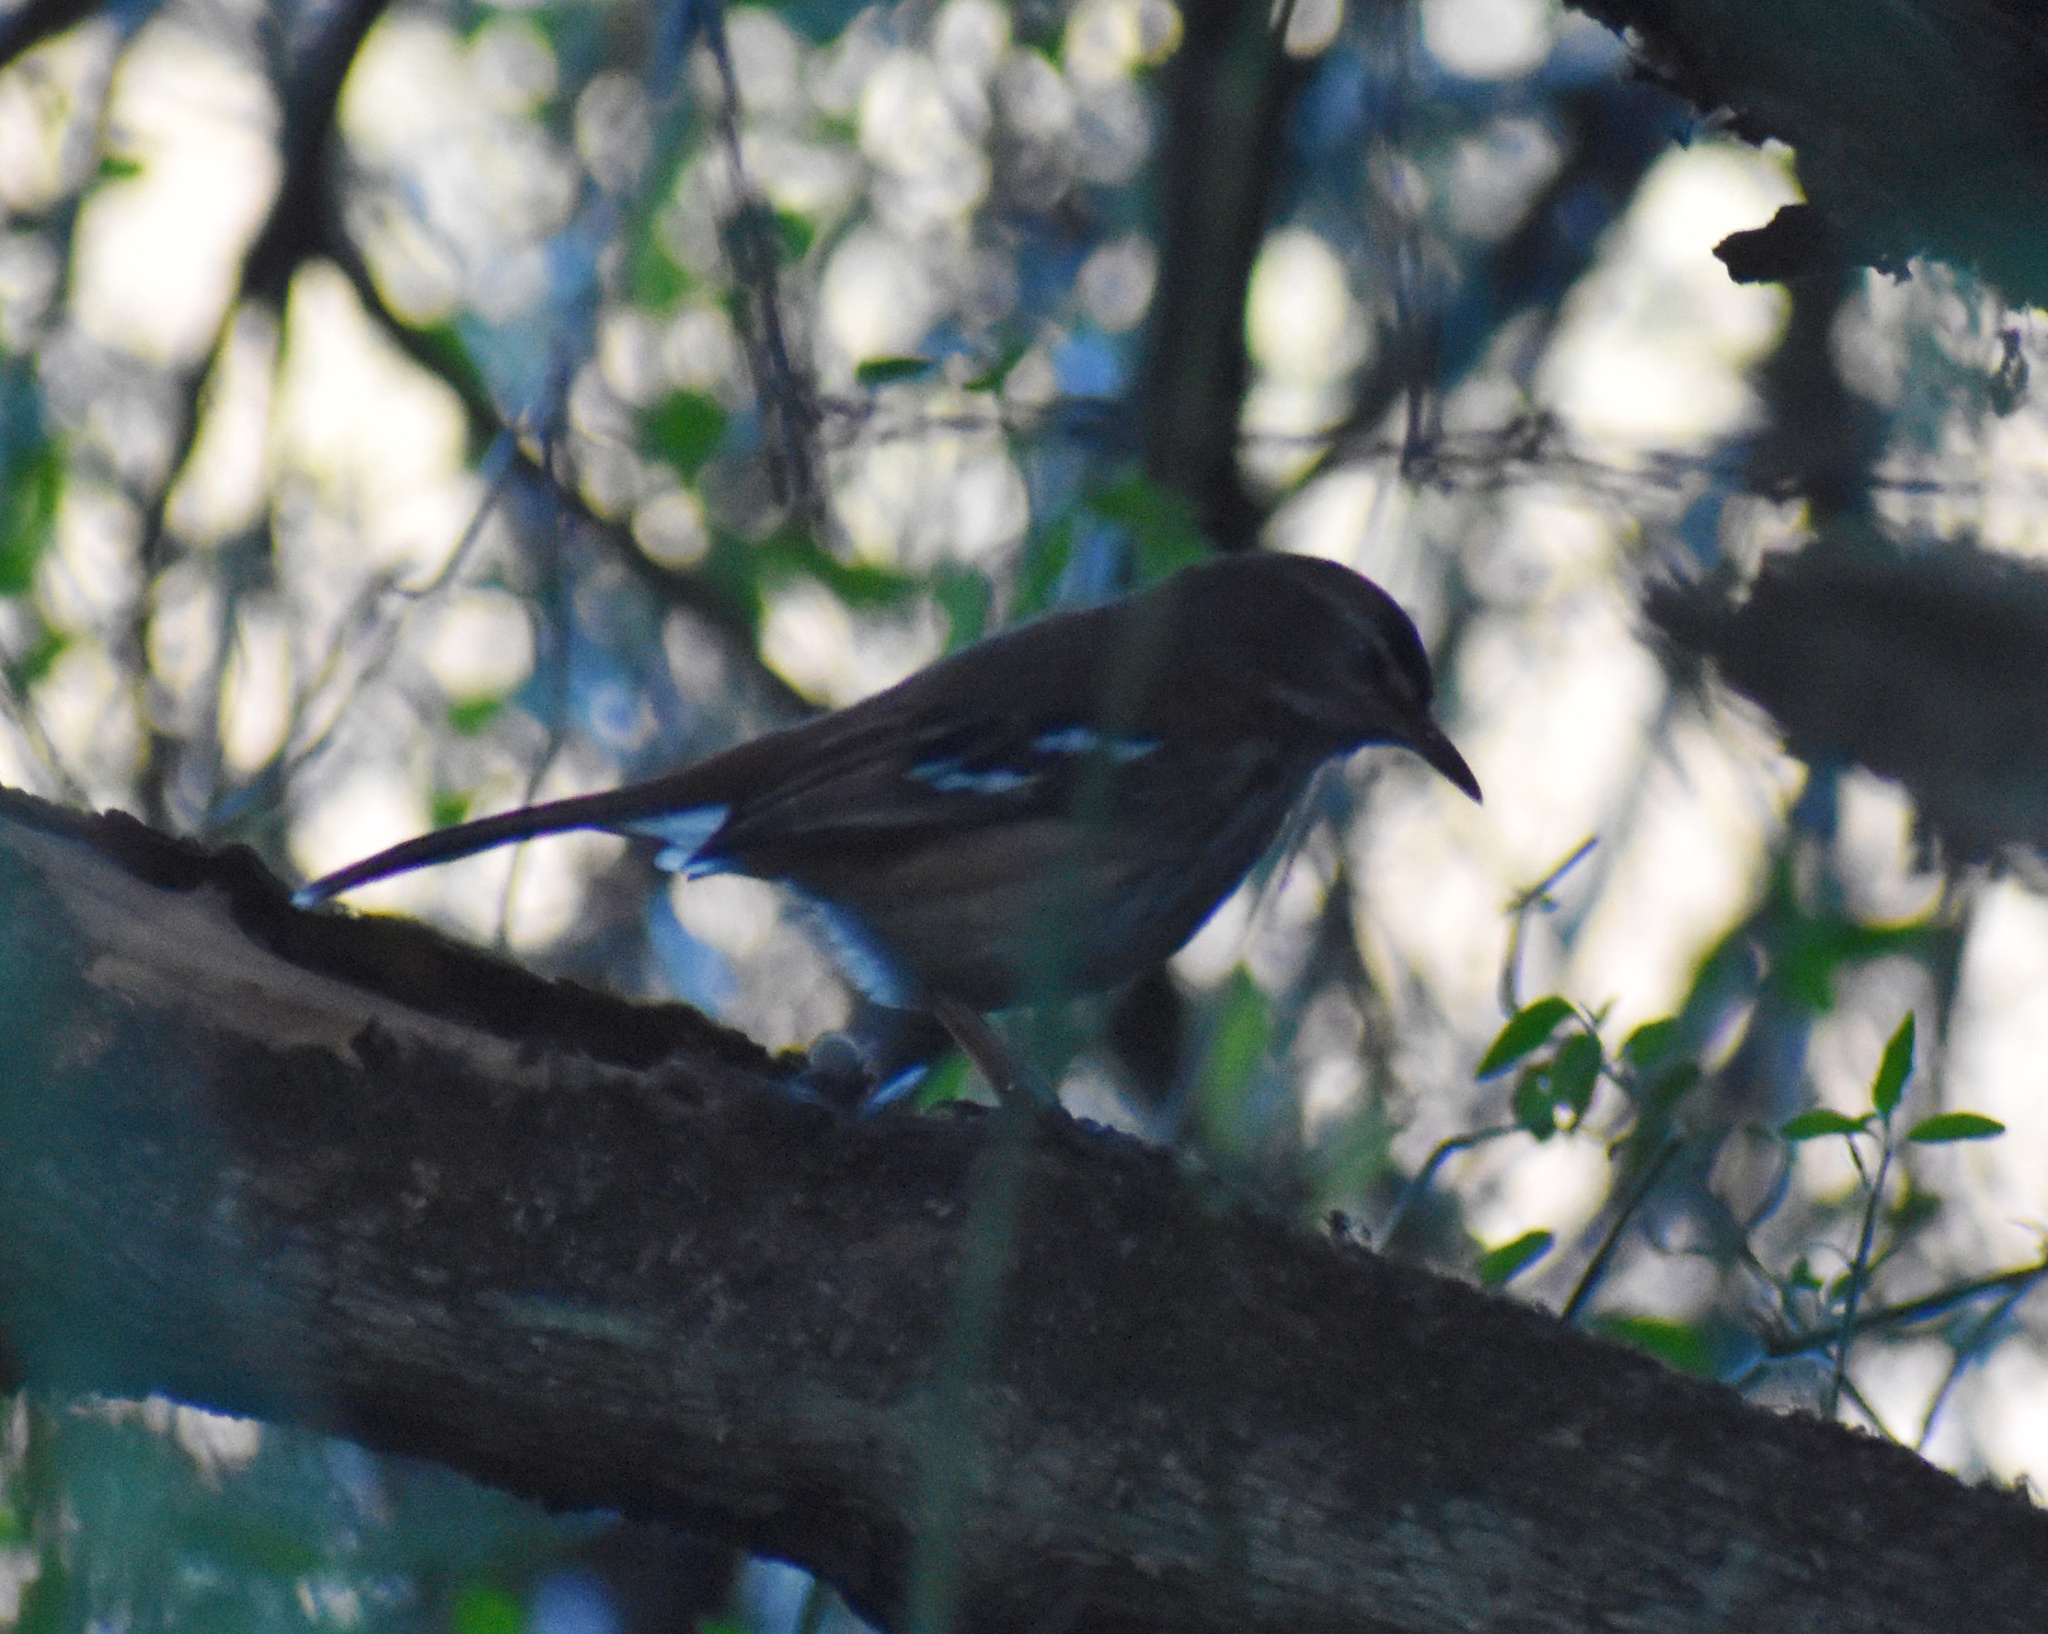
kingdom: Animalia
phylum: Chordata
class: Aves
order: Passeriformes
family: Muscicapidae
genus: Erythropygia
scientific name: Erythropygia leucophrys
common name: White-browed scrub robin
